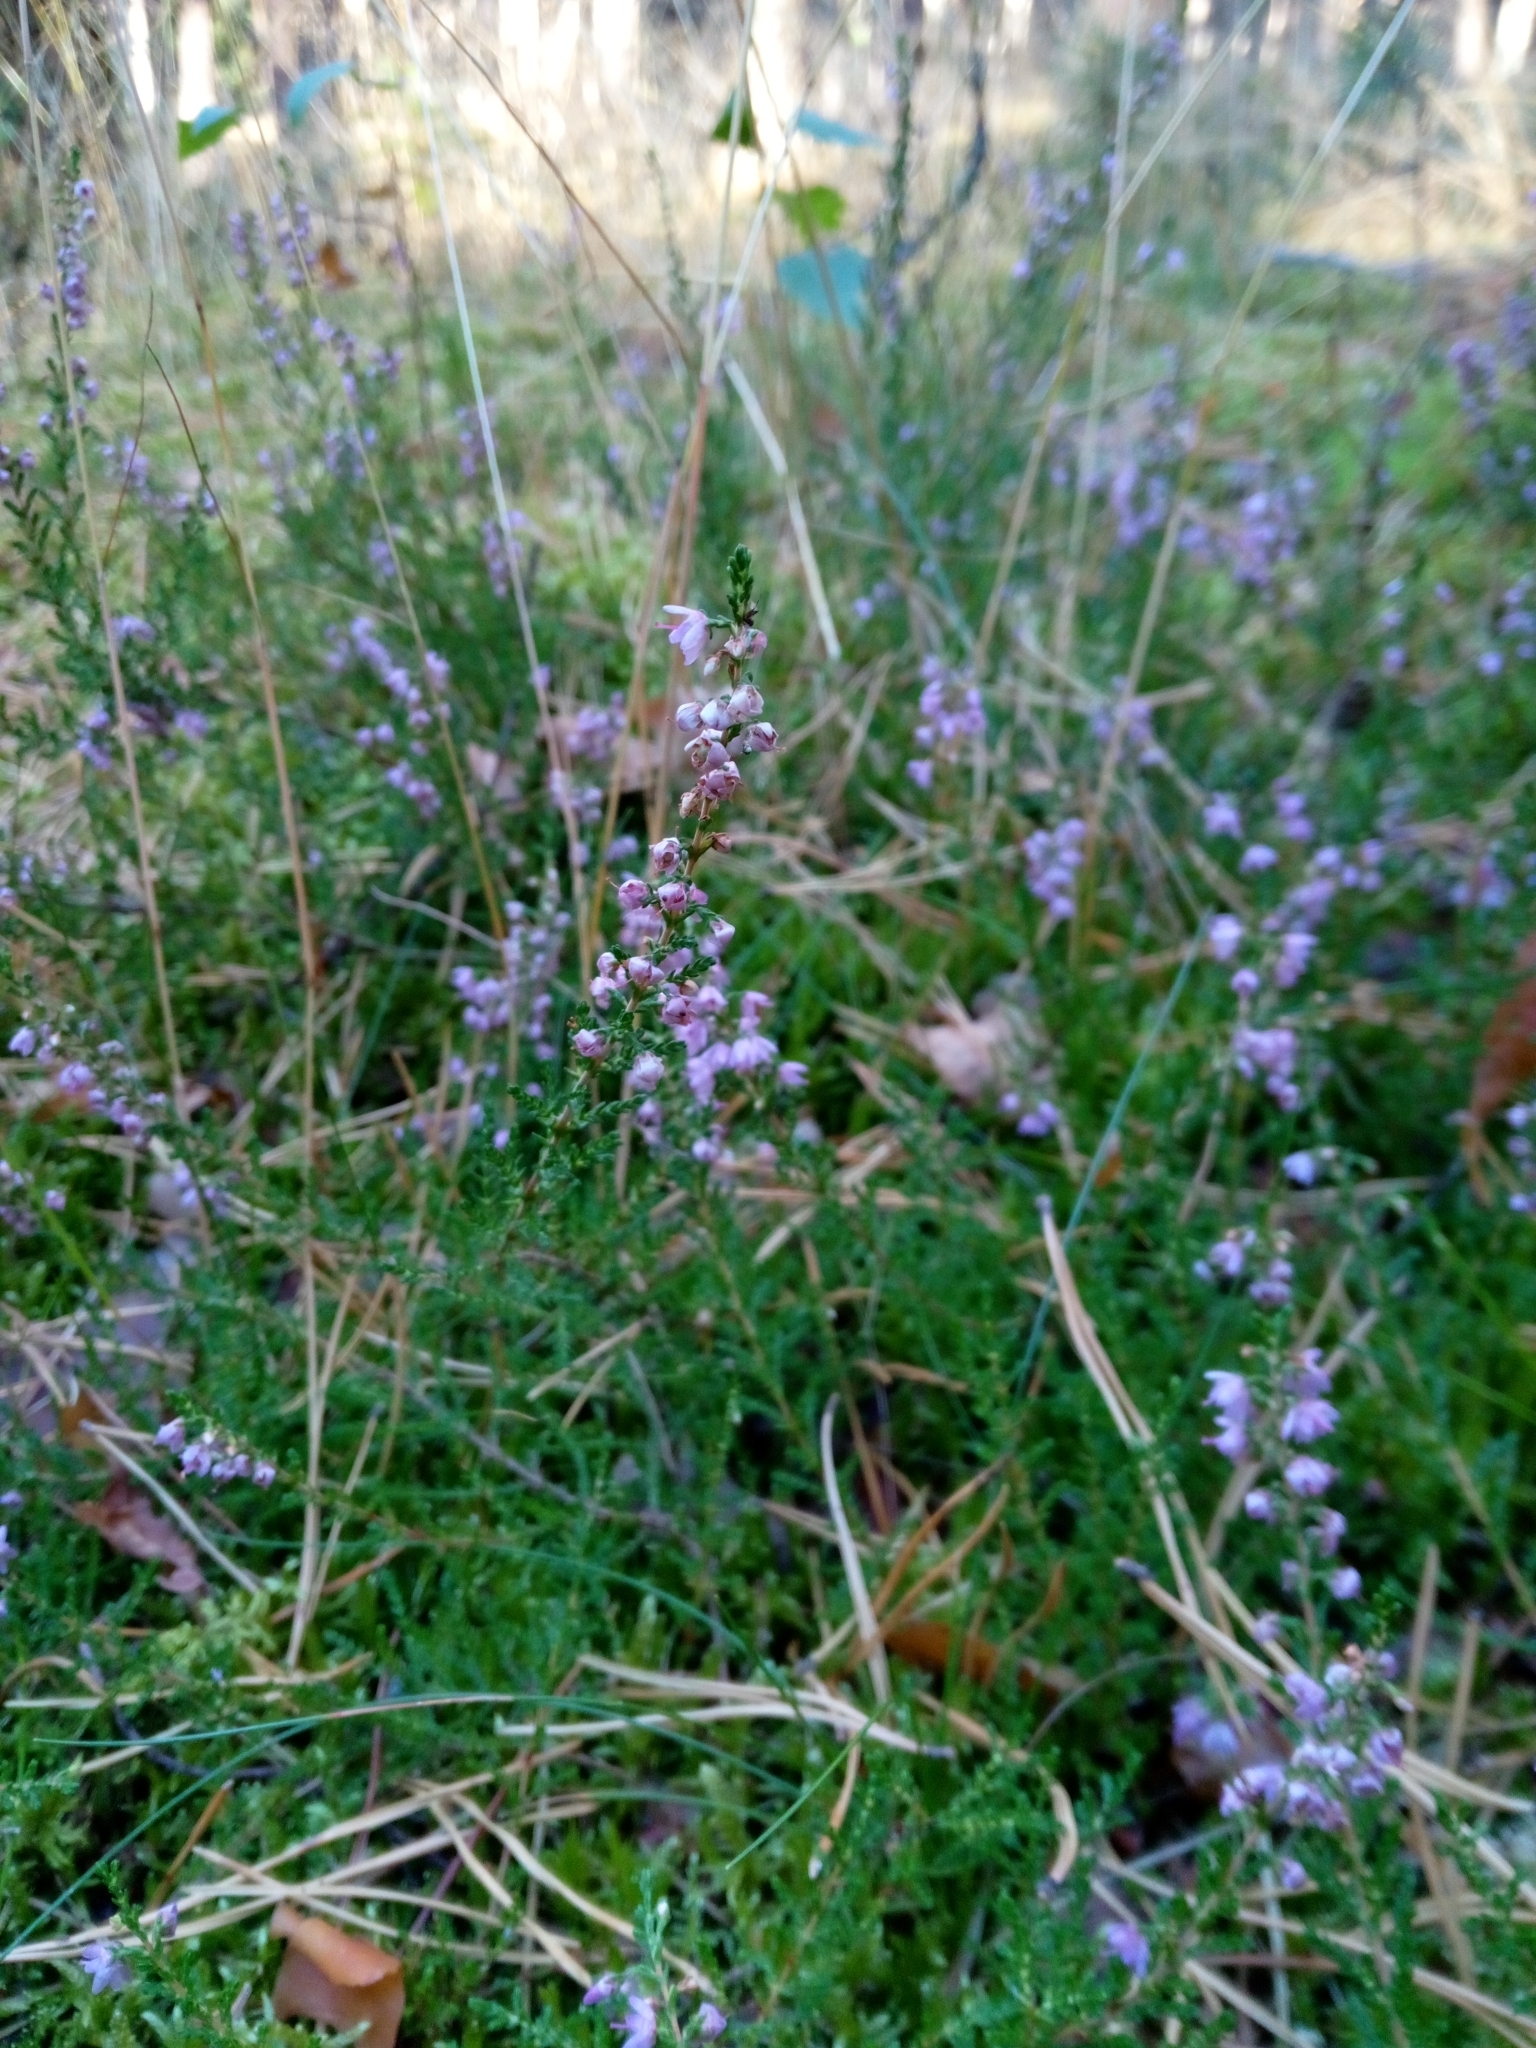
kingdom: Plantae
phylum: Tracheophyta
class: Magnoliopsida
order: Ericales
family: Ericaceae
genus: Calluna
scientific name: Calluna vulgaris
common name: Heather
